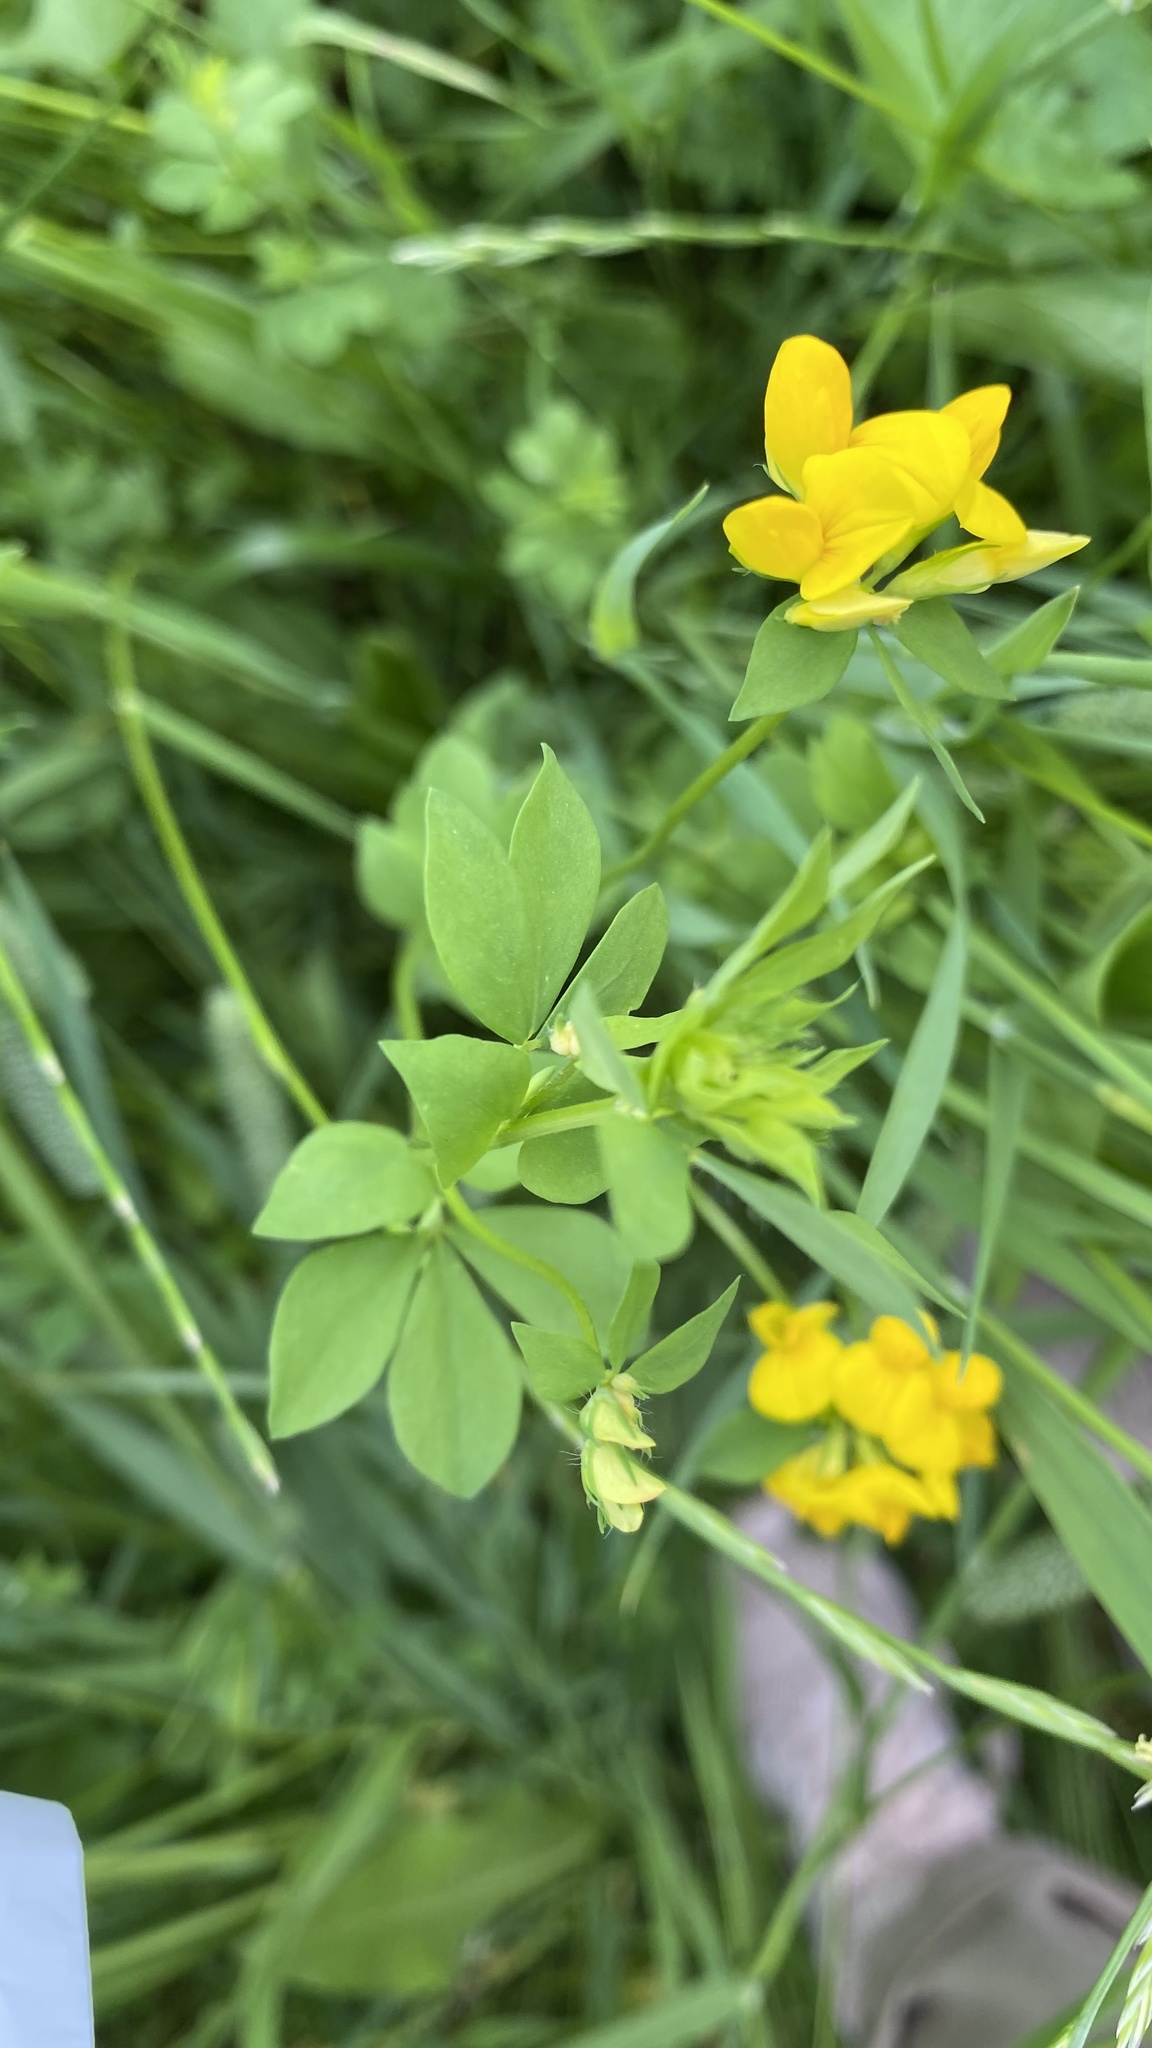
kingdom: Plantae
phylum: Tracheophyta
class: Magnoliopsida
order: Fabales
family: Fabaceae
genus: Lotus
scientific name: Lotus corniculatus
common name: Common bird's-foot-trefoil
